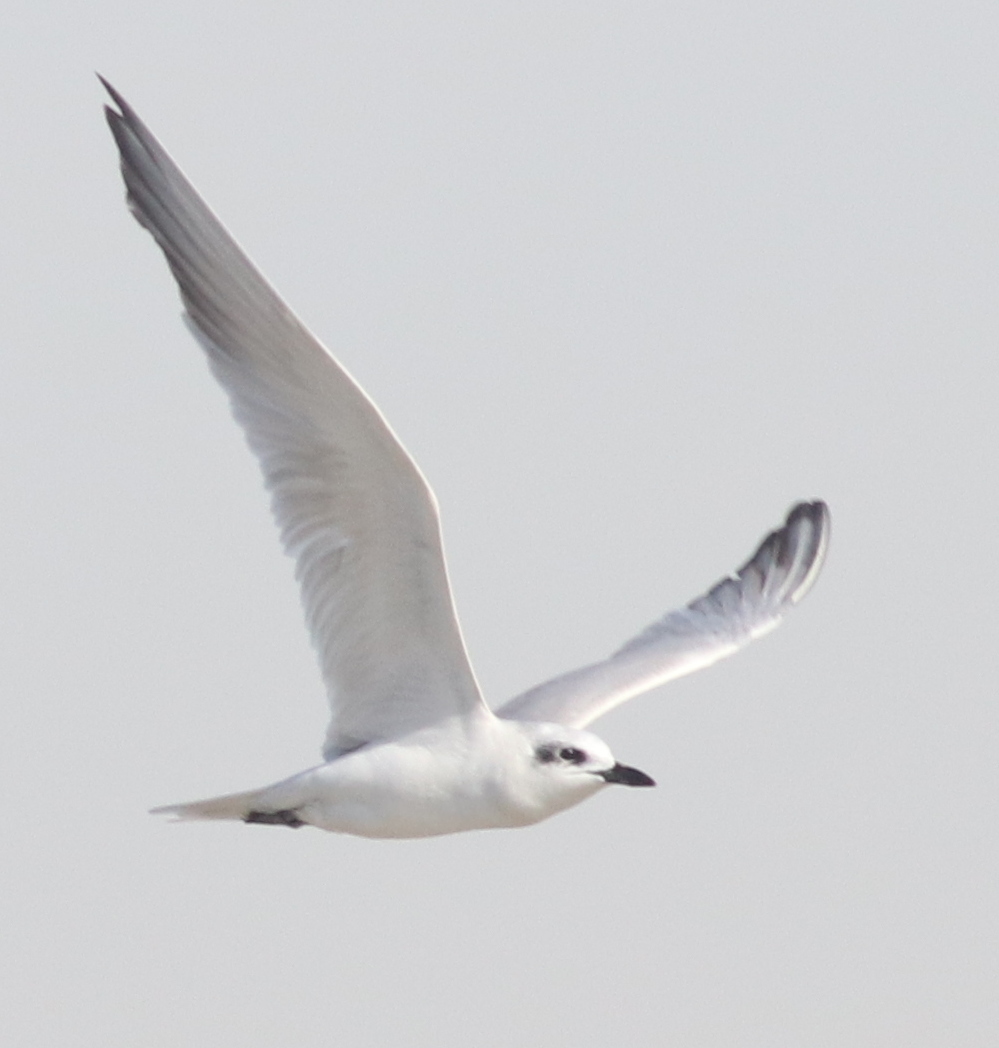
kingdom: Animalia
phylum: Chordata
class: Aves
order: Charadriiformes
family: Laridae
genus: Gelochelidon
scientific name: Gelochelidon nilotica
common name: Gull-billed tern
